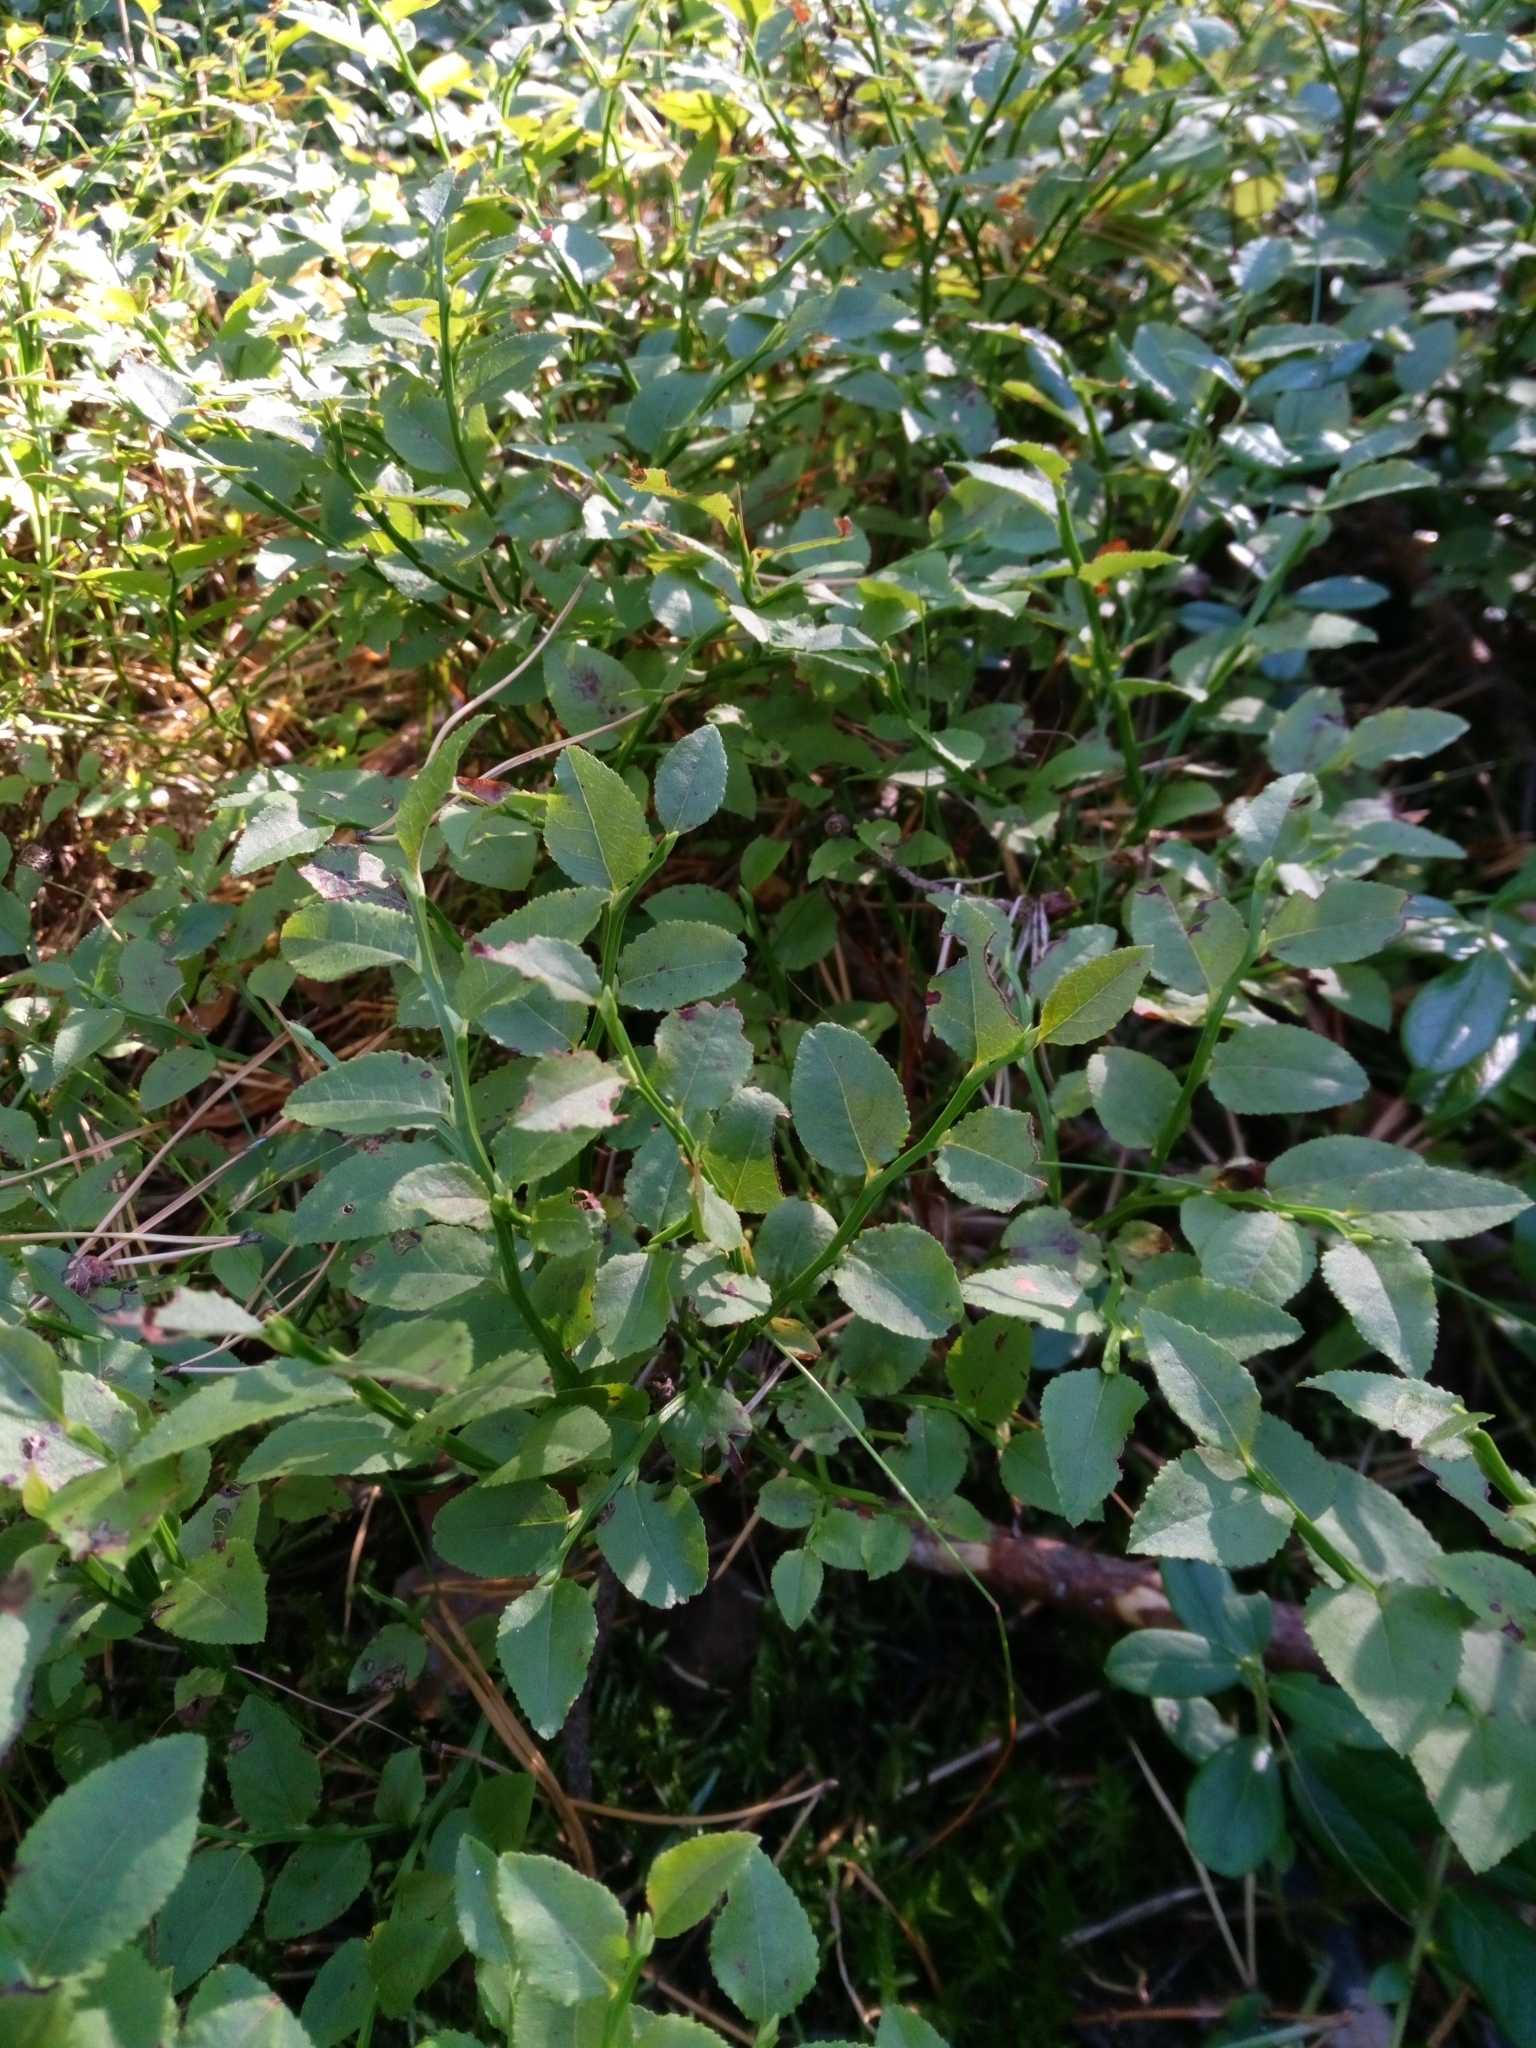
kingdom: Plantae
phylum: Tracheophyta
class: Magnoliopsida
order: Ericales
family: Ericaceae
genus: Vaccinium
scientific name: Vaccinium myrtillus
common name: Bilberry
